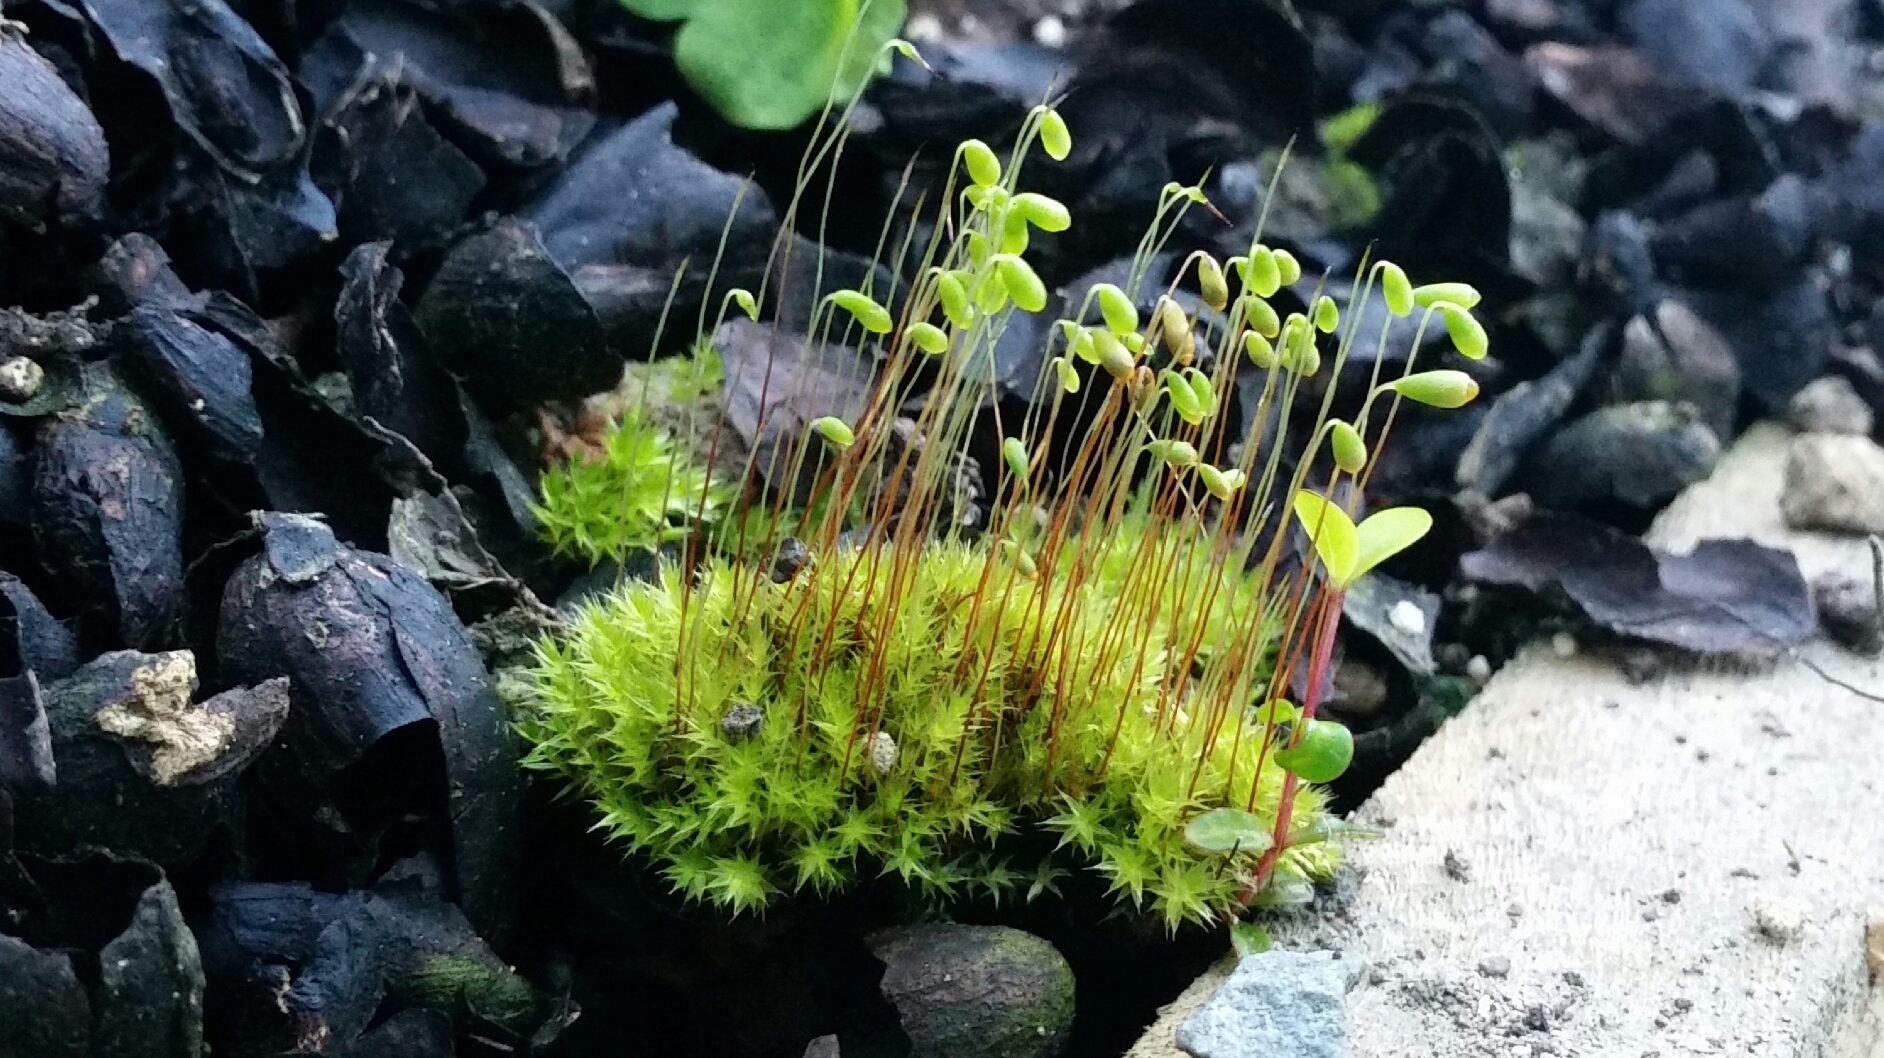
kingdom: Plantae
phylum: Bryophyta
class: Bryopsida
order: Funariales
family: Funariaceae
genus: Funaria
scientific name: Funaria hygrometrica
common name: Common cord moss
